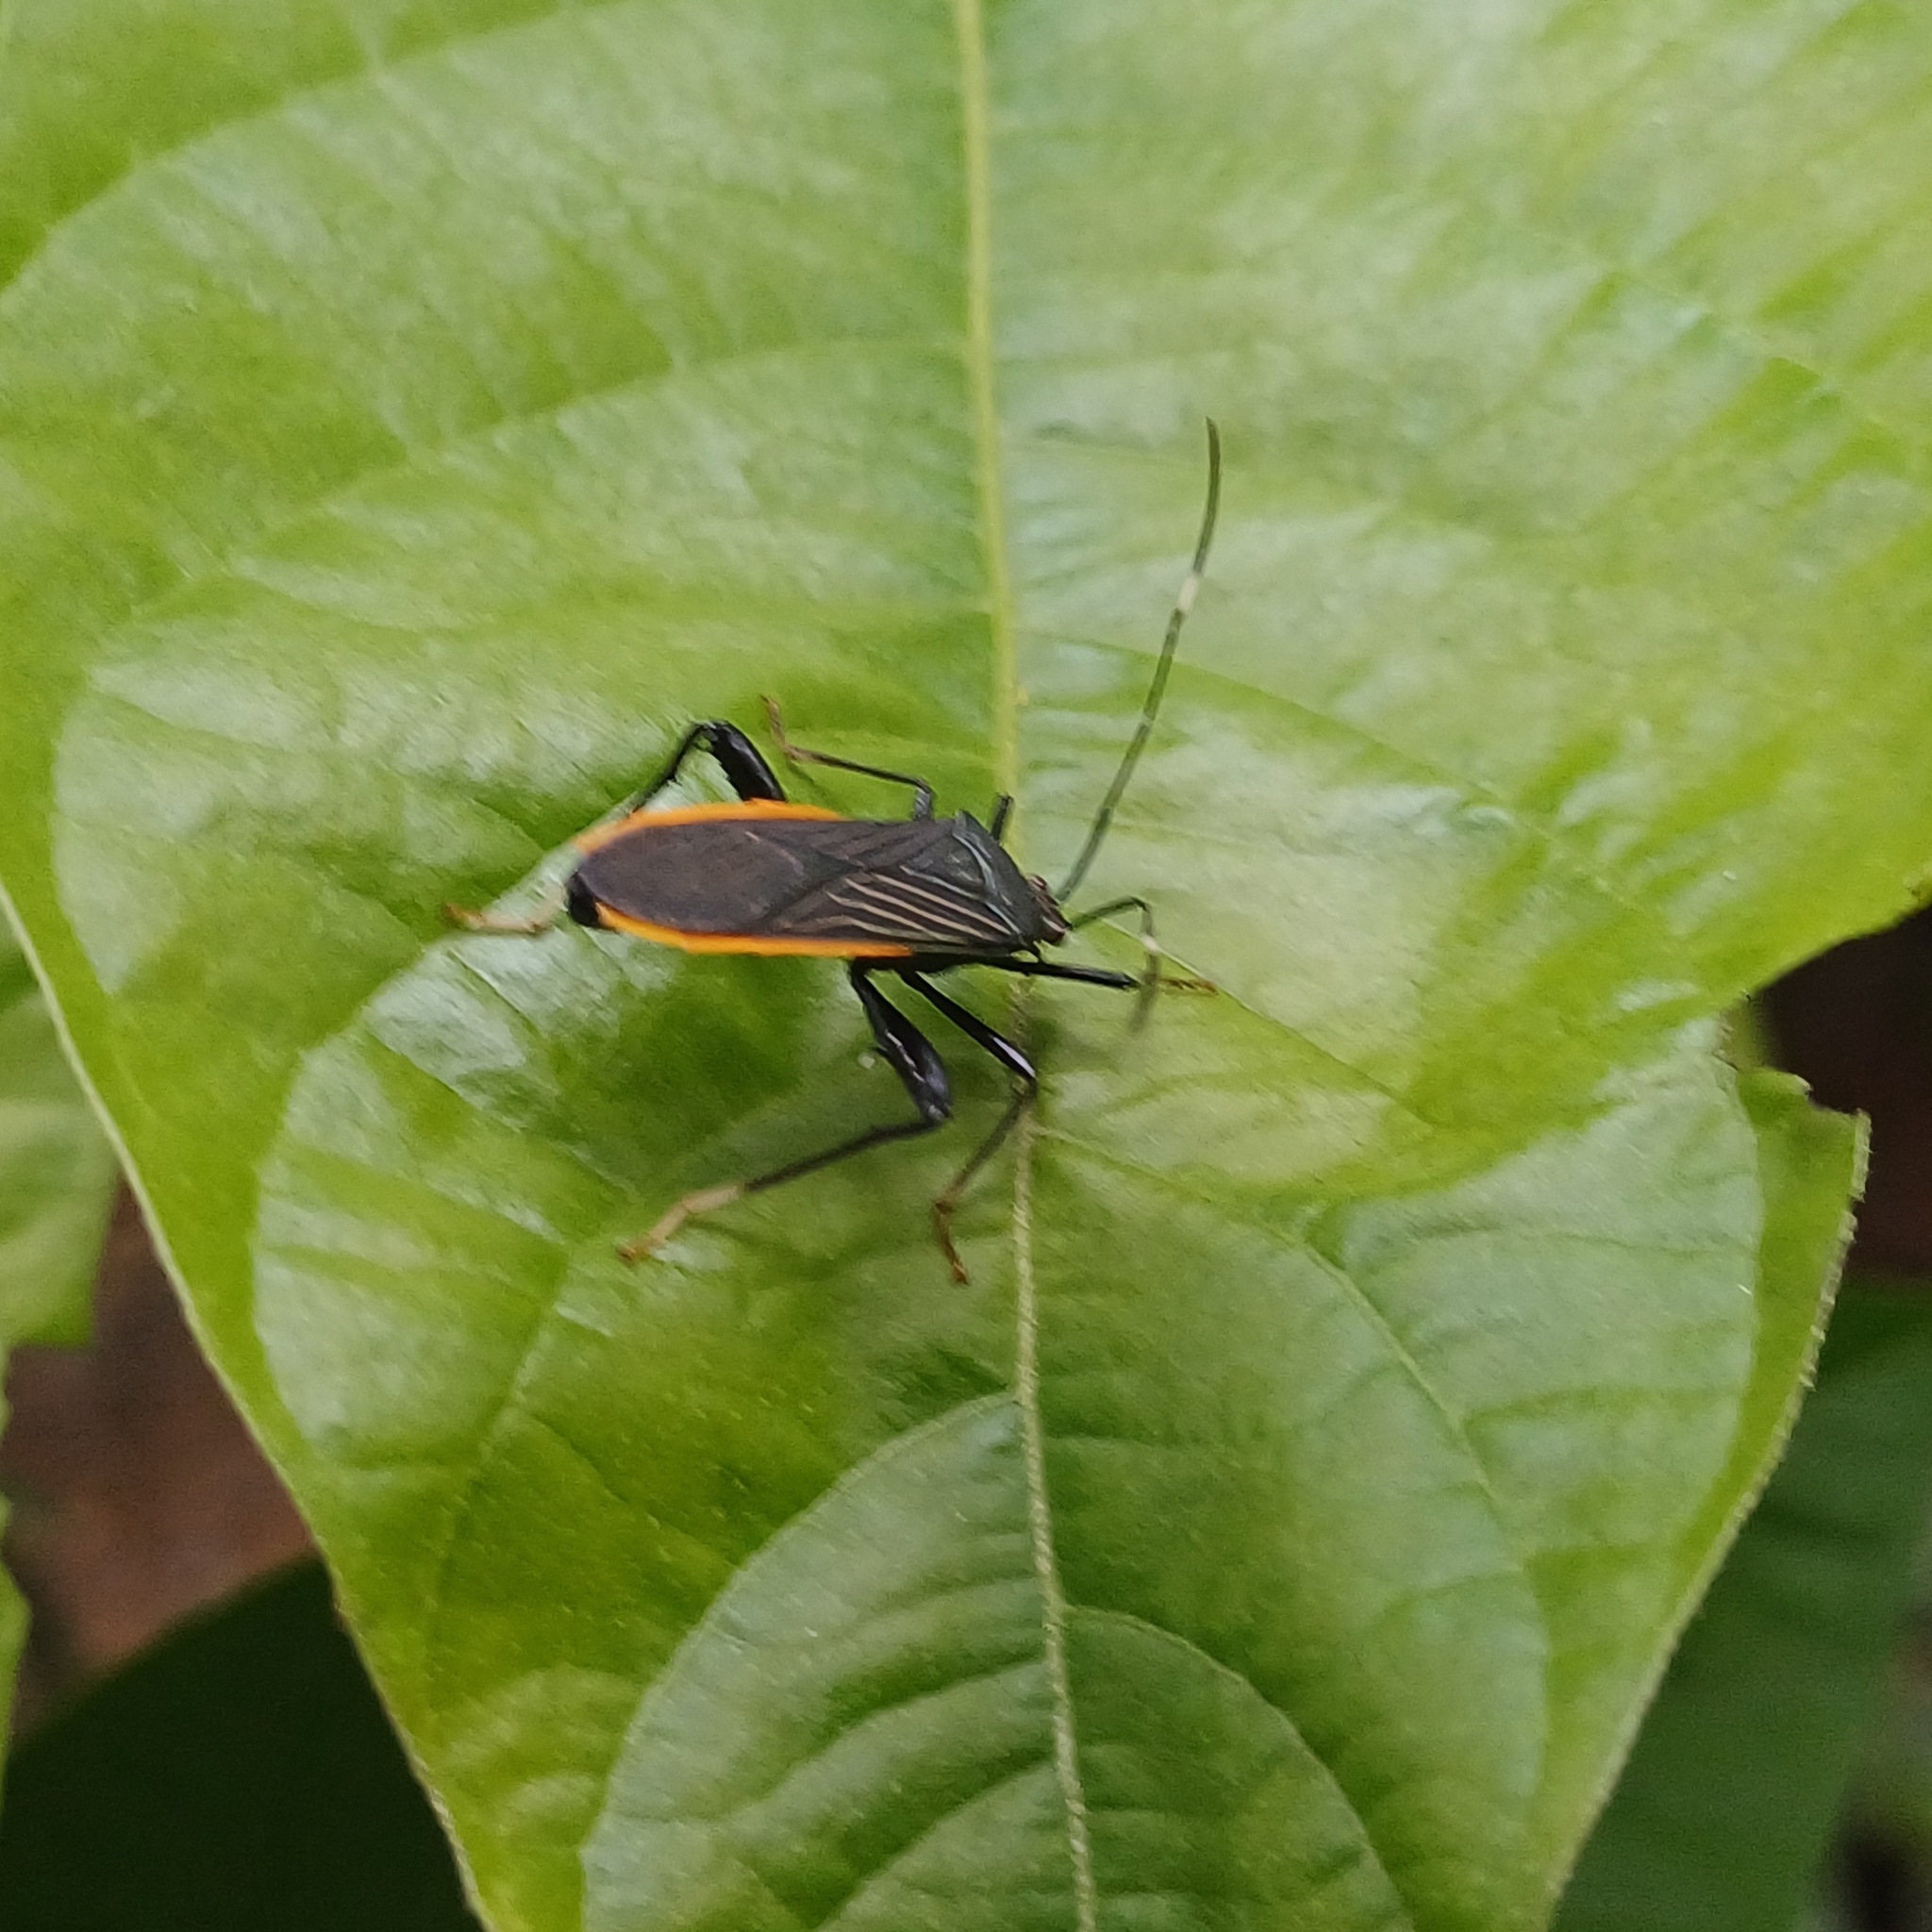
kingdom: Animalia
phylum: Arthropoda
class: Insecta
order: Hemiptera
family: Coreidae
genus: Nematopus
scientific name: Nematopus indus
